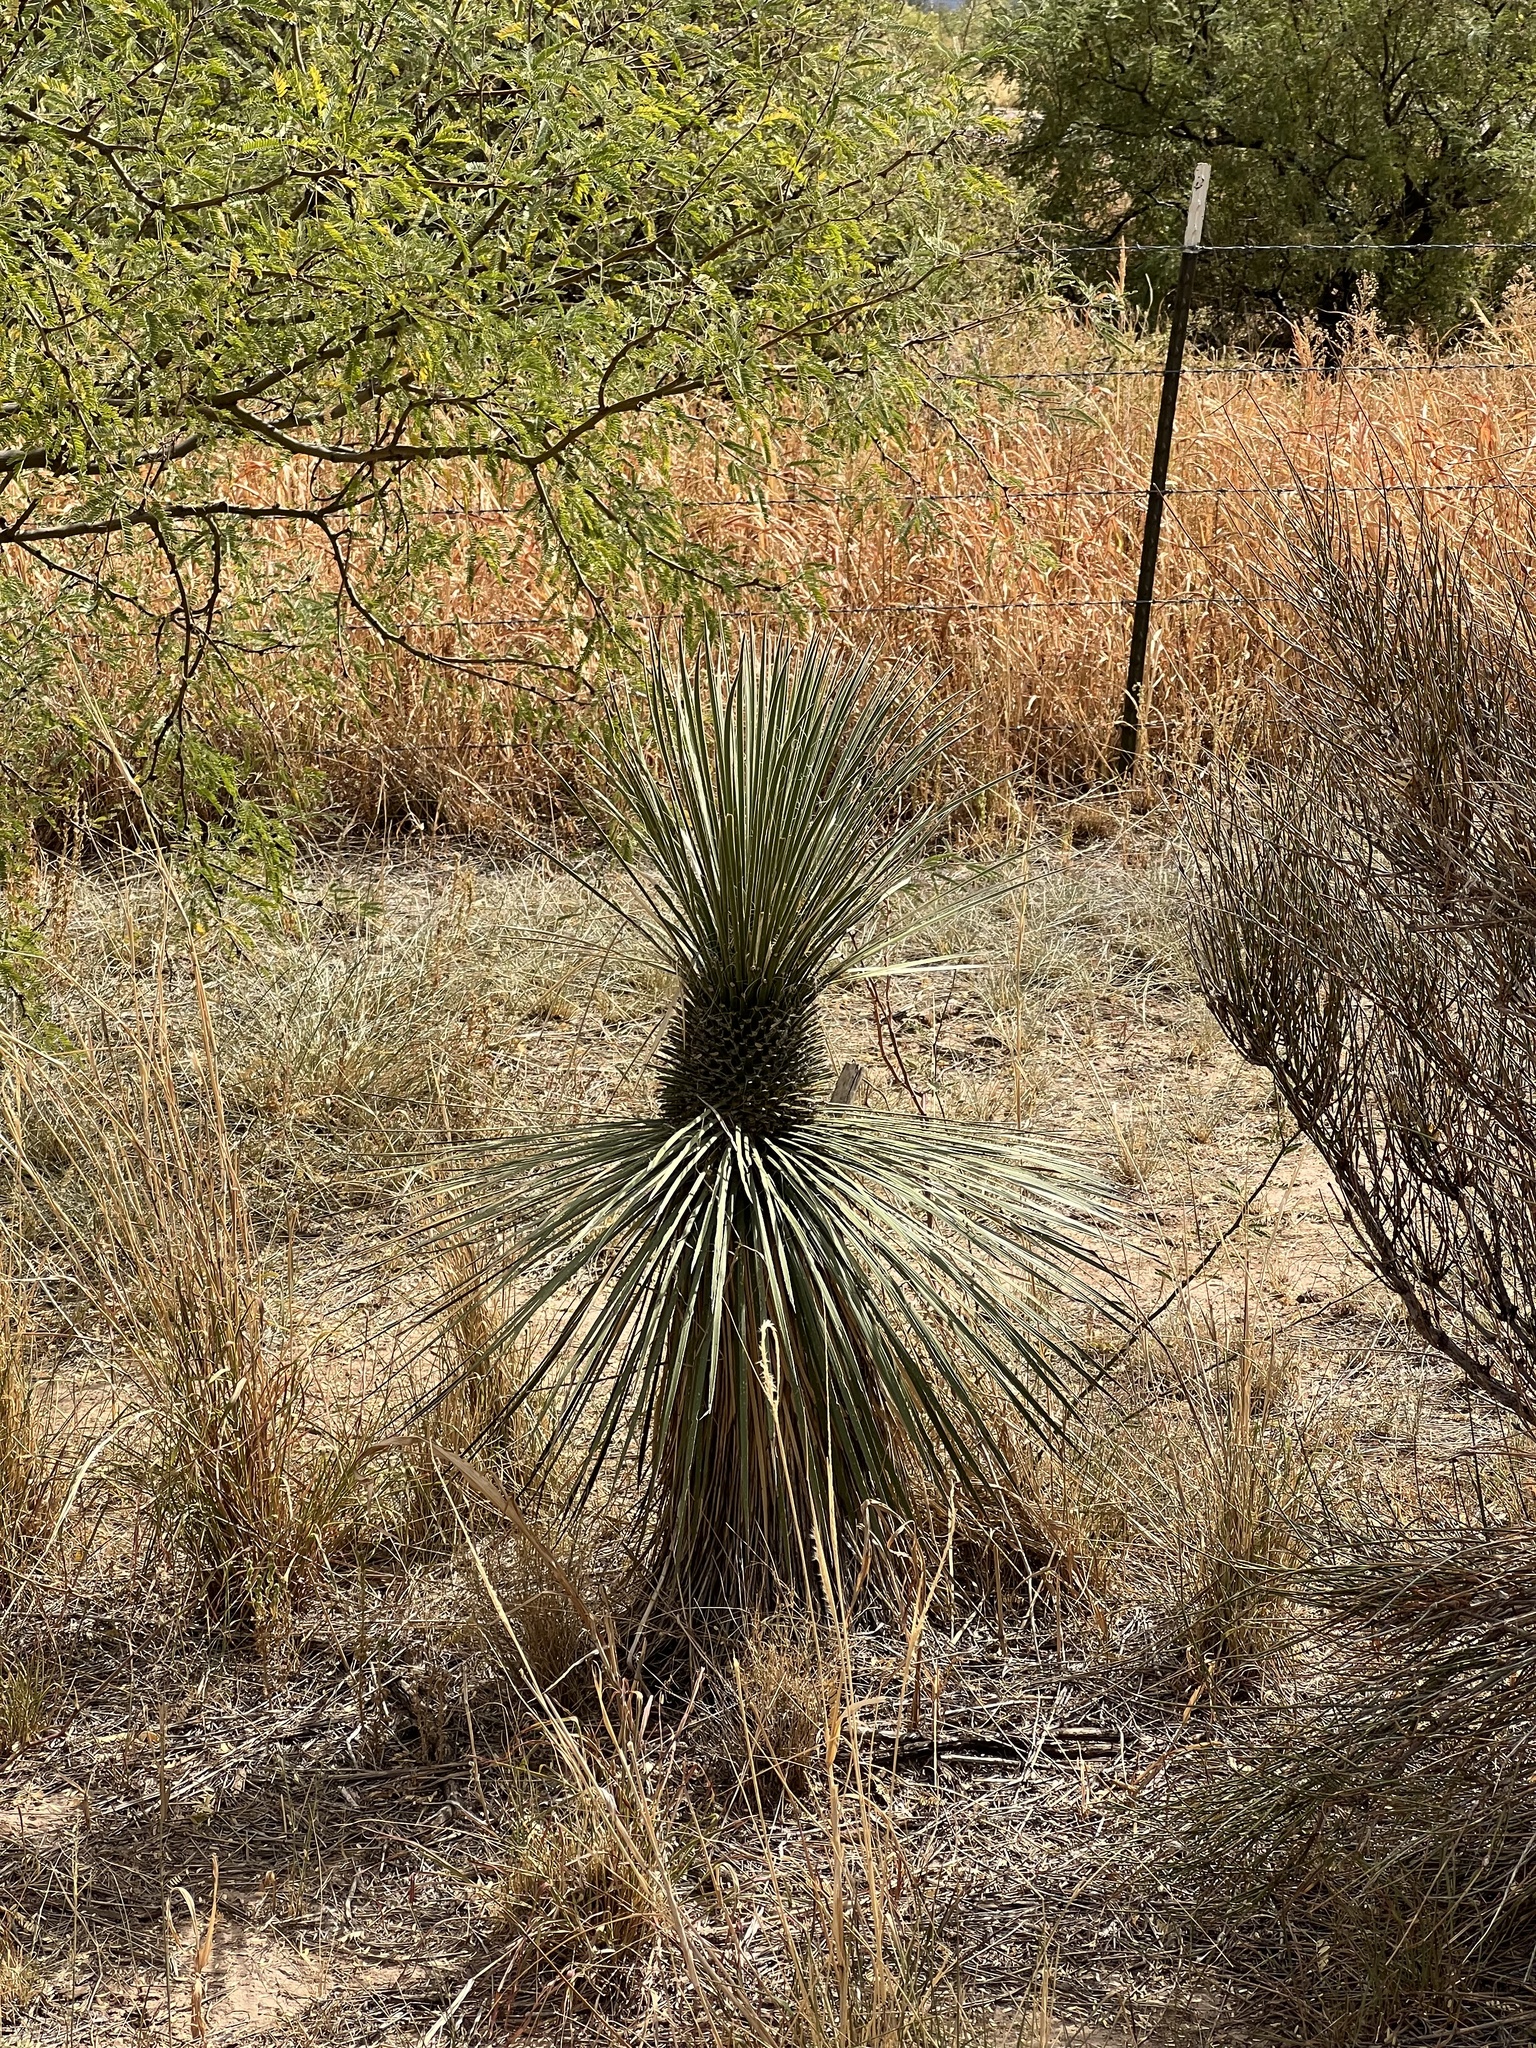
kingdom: Plantae
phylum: Tracheophyta
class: Liliopsida
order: Asparagales
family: Asparagaceae
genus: Yucca
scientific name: Yucca elata
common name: Palmella
